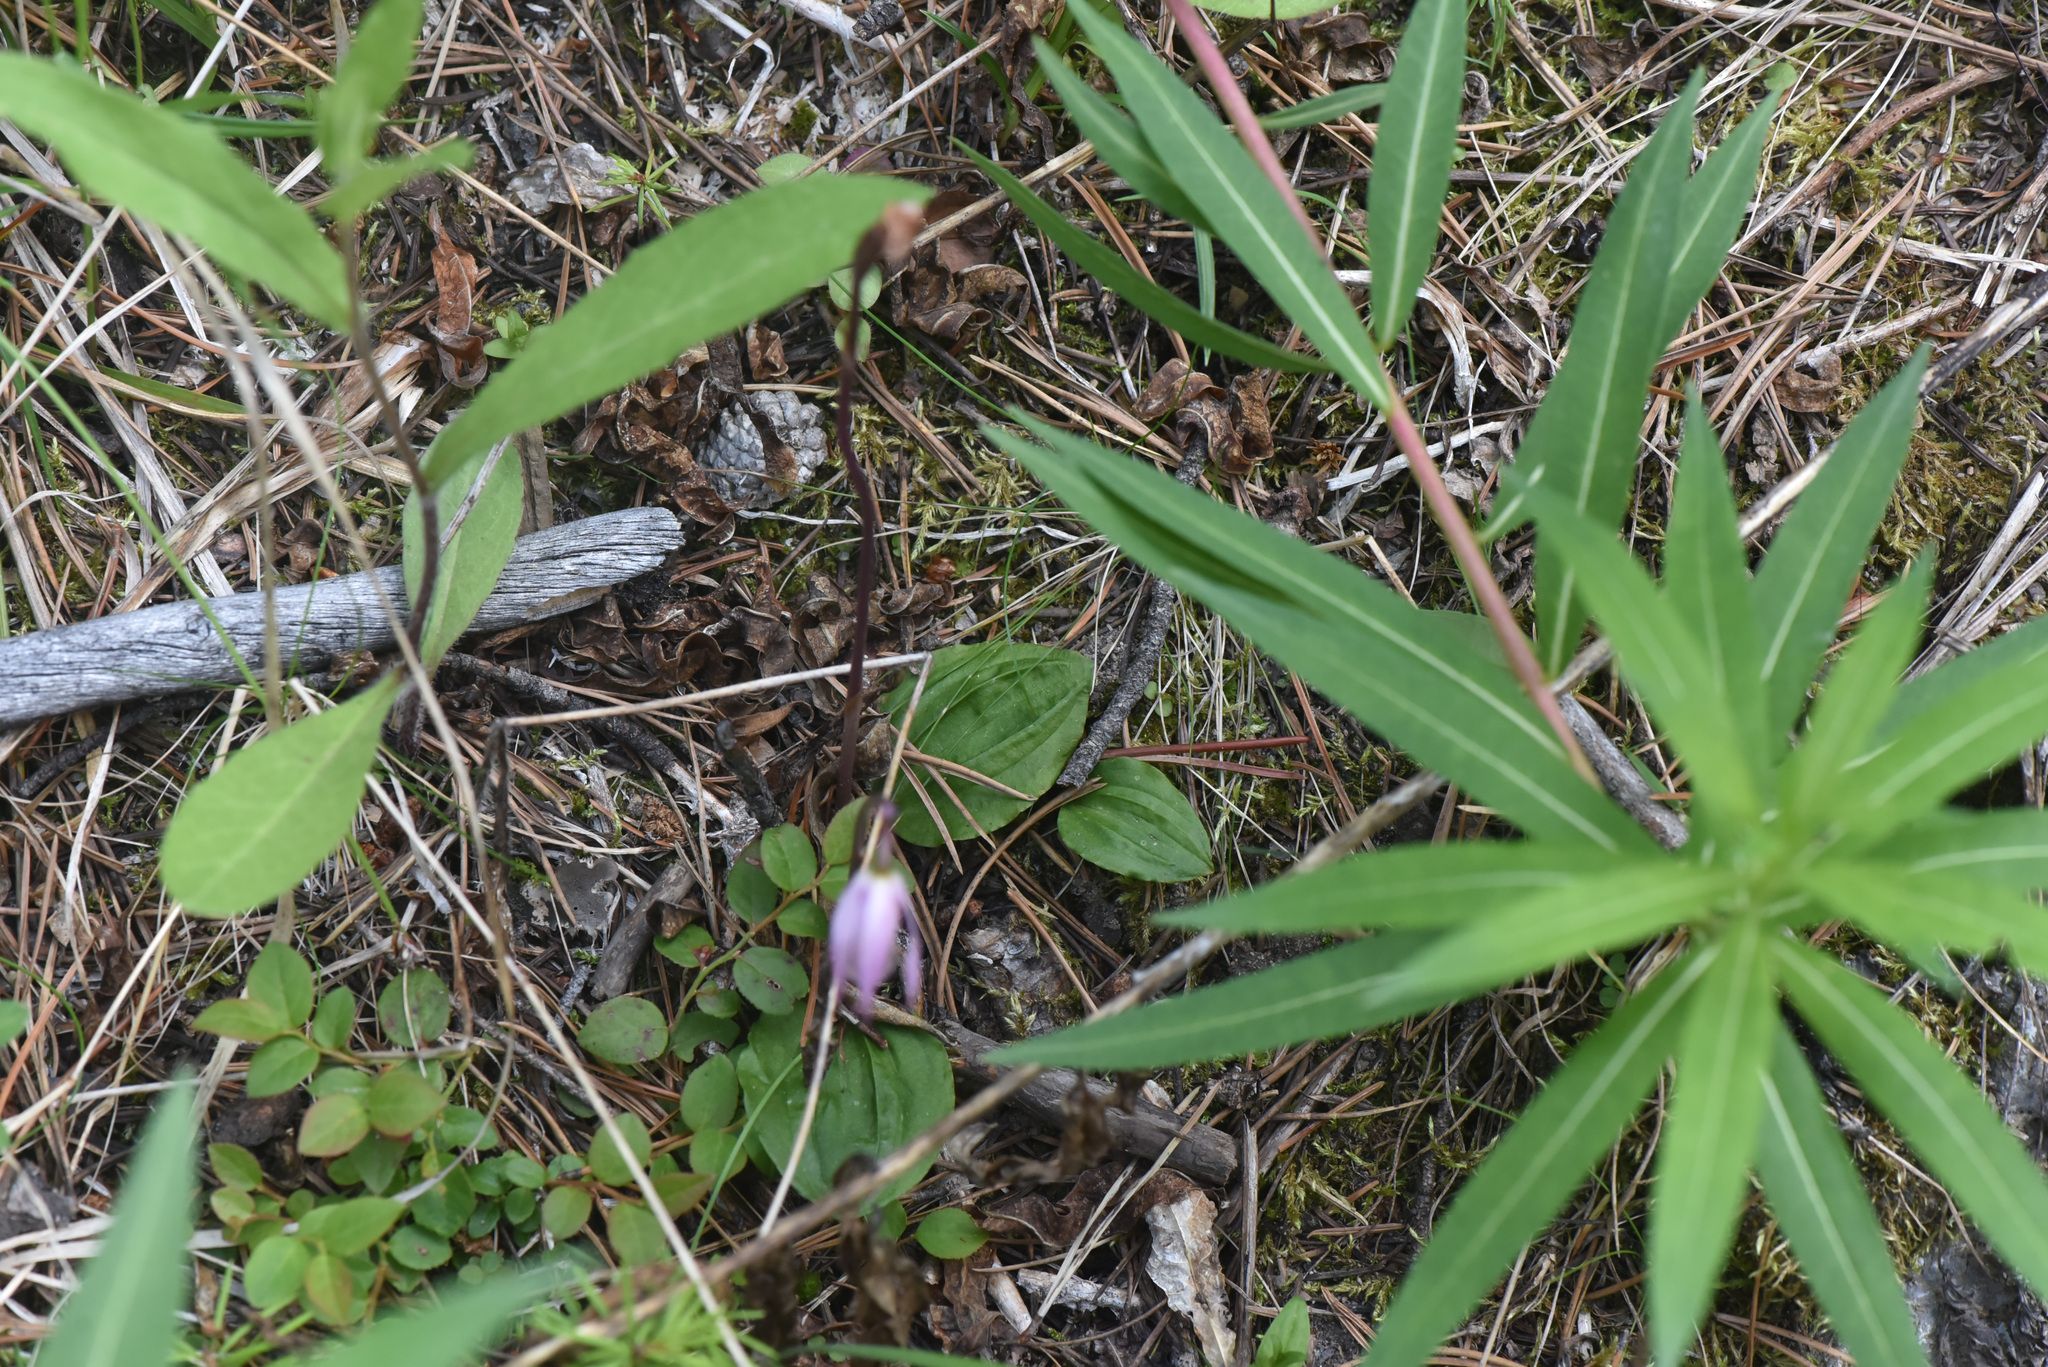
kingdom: Plantae
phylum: Tracheophyta
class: Liliopsida
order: Asparagales
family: Orchidaceae
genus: Calypso
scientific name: Calypso bulbosa
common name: Calypso
